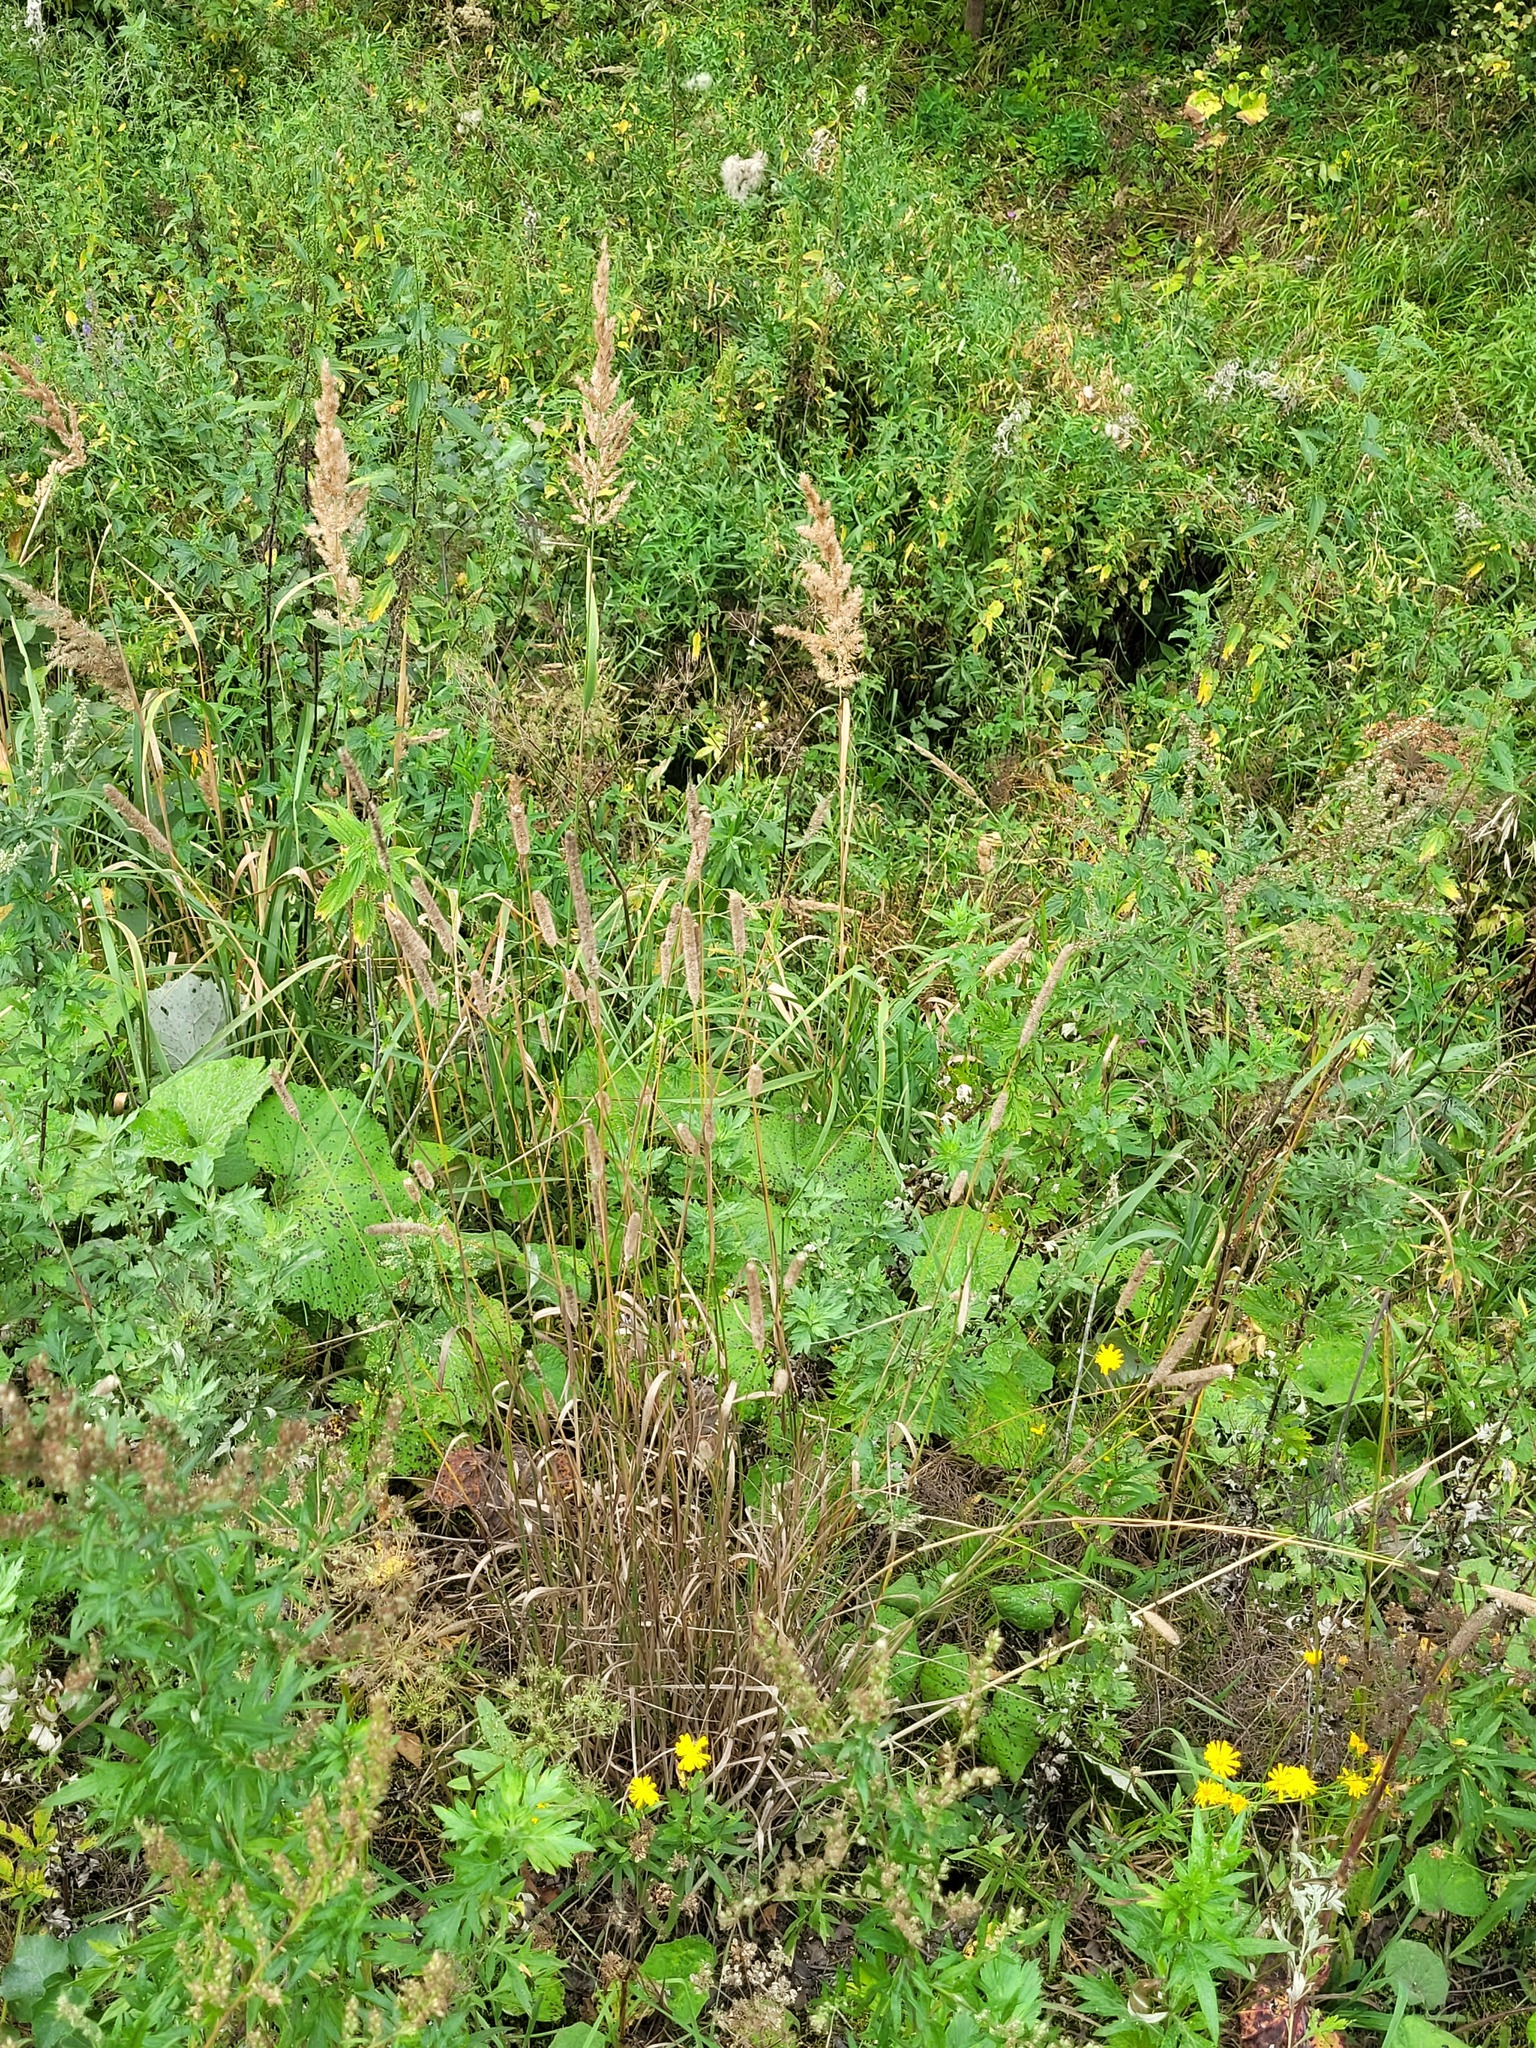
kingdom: Plantae
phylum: Tracheophyta
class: Liliopsida
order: Poales
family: Poaceae
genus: Phleum
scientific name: Phleum pratense
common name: Timothy grass
